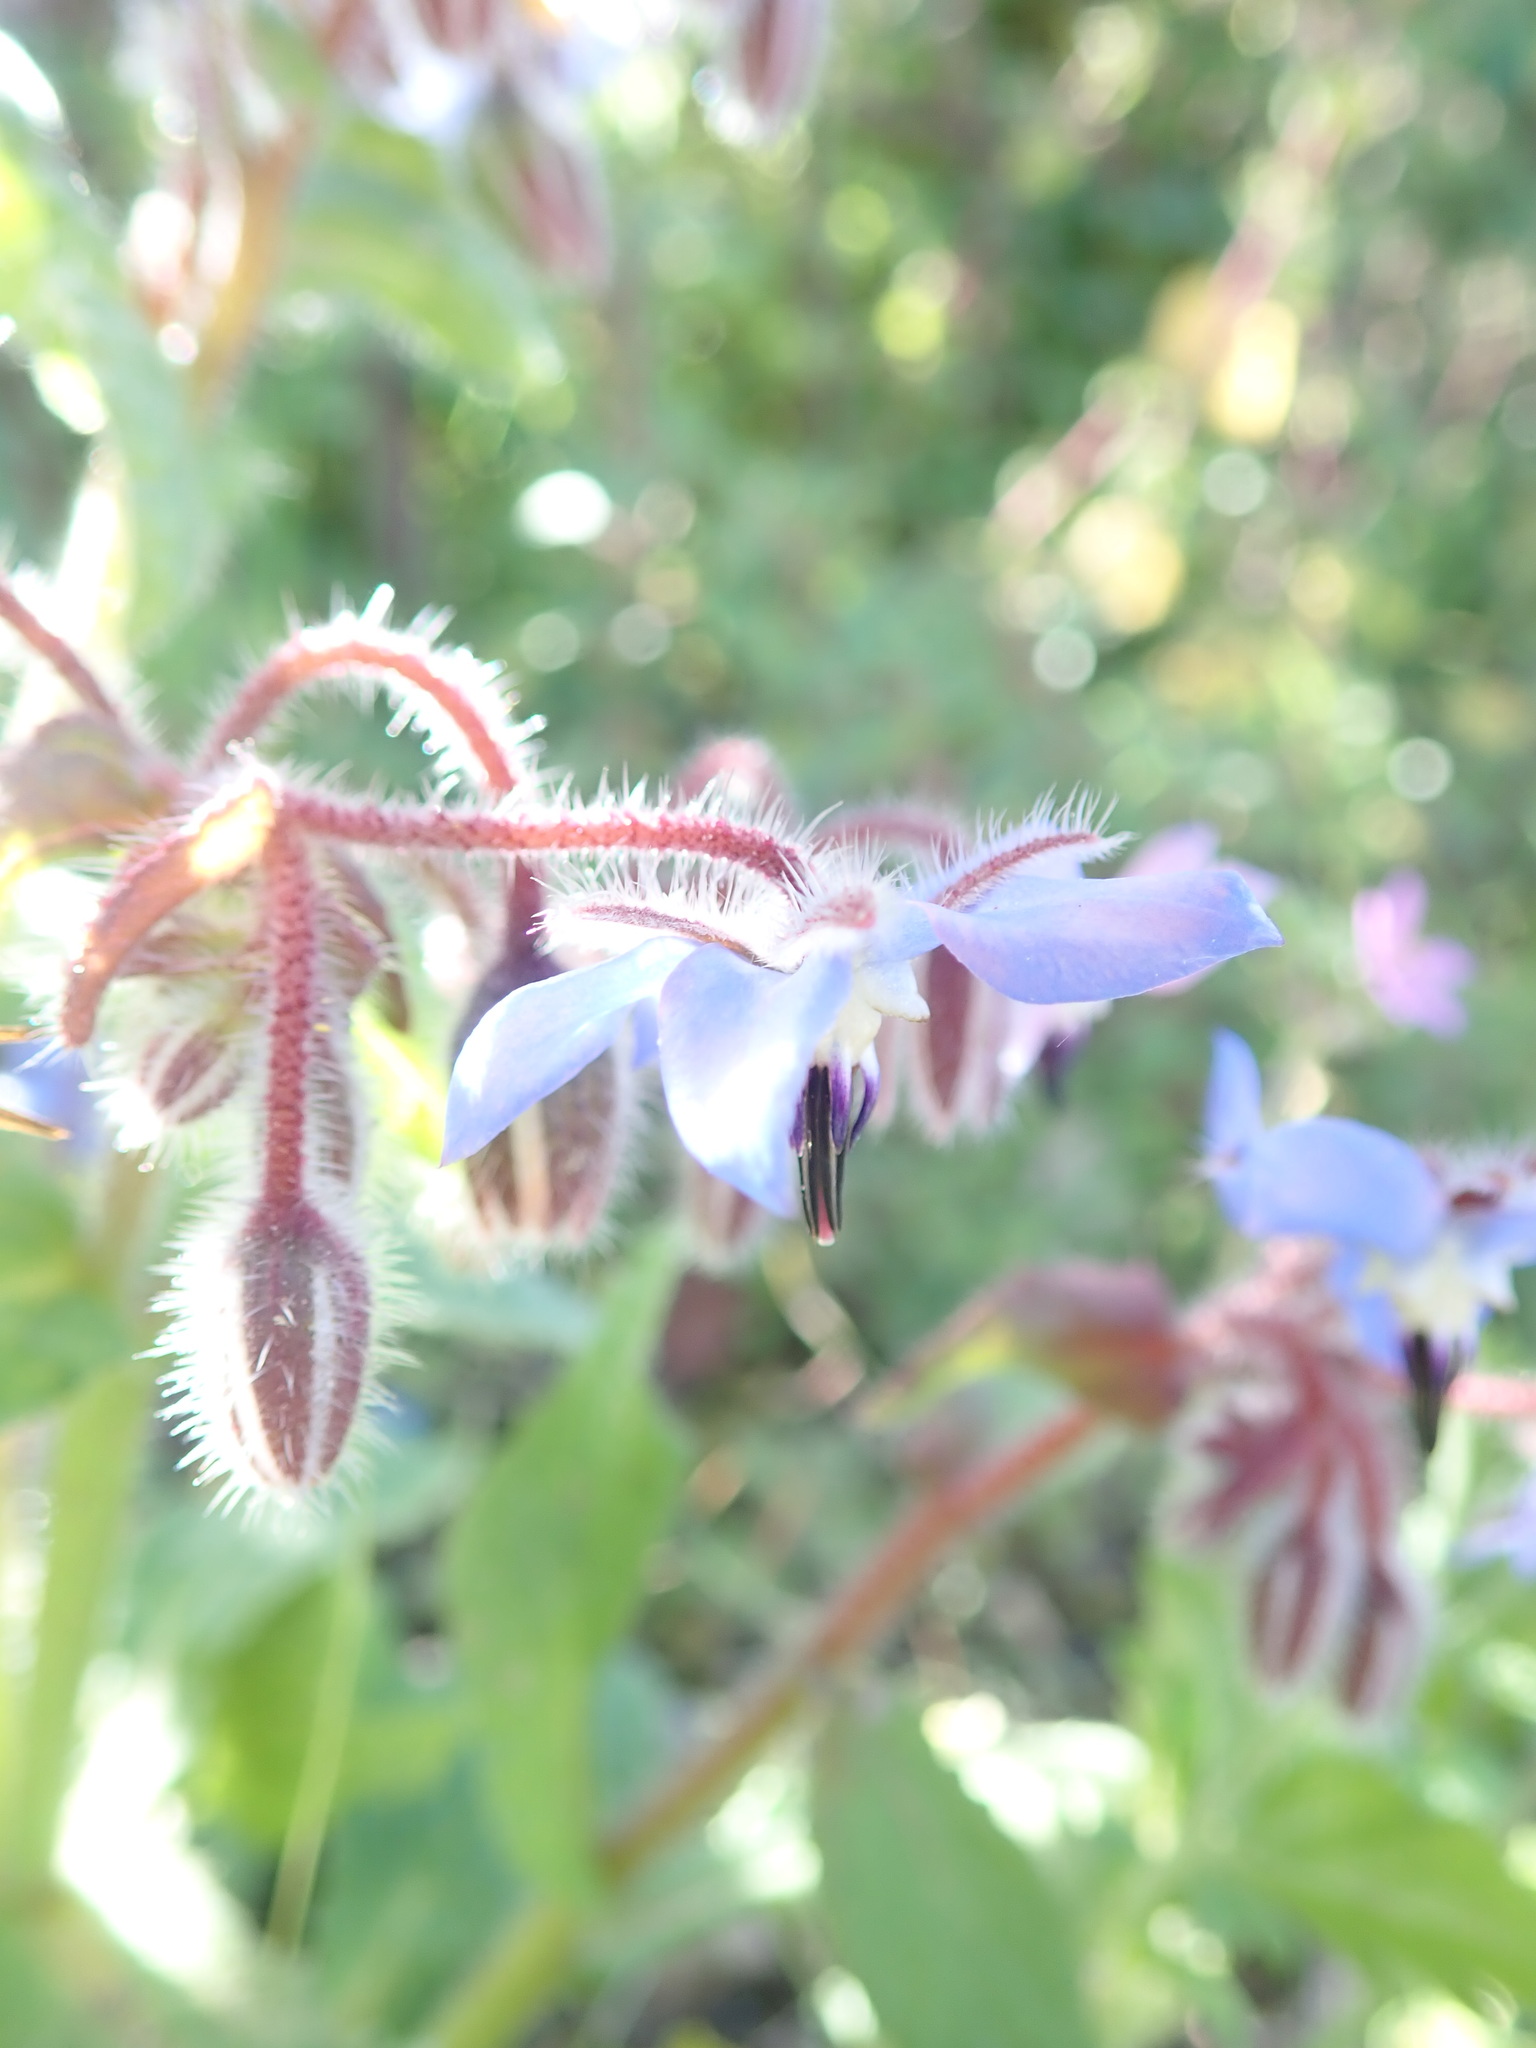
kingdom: Plantae
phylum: Tracheophyta
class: Magnoliopsida
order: Boraginales
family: Boraginaceae
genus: Borago
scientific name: Borago officinalis
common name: Borage
